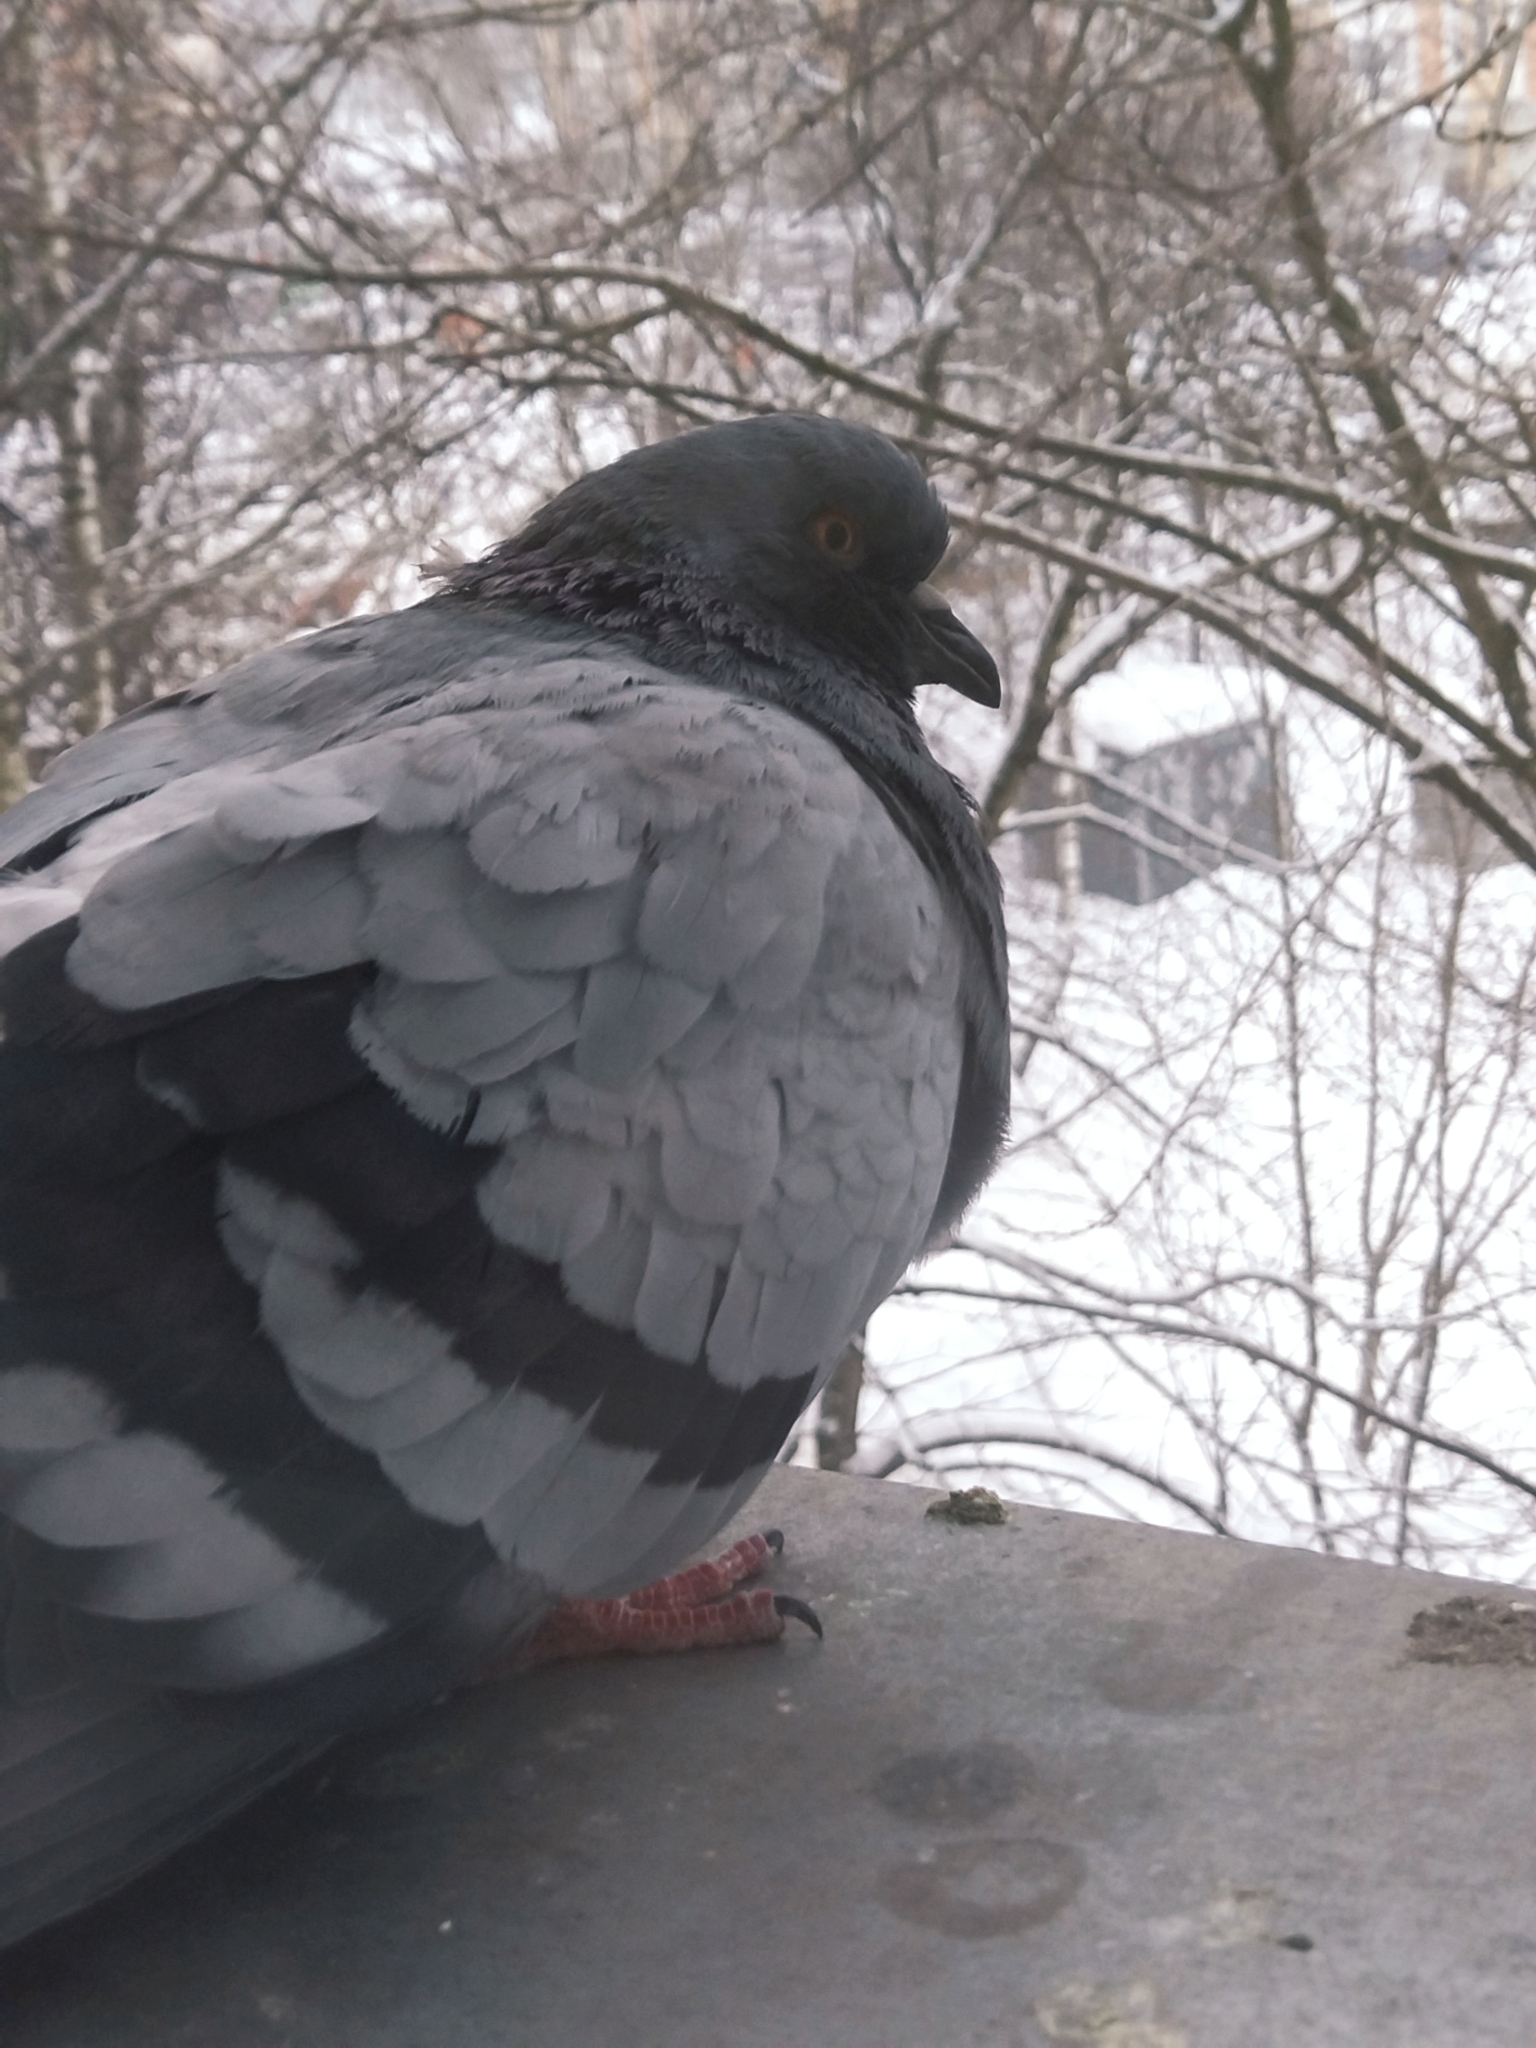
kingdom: Animalia
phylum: Chordata
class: Aves
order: Columbiformes
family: Columbidae
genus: Columba
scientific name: Columba livia
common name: Rock pigeon
